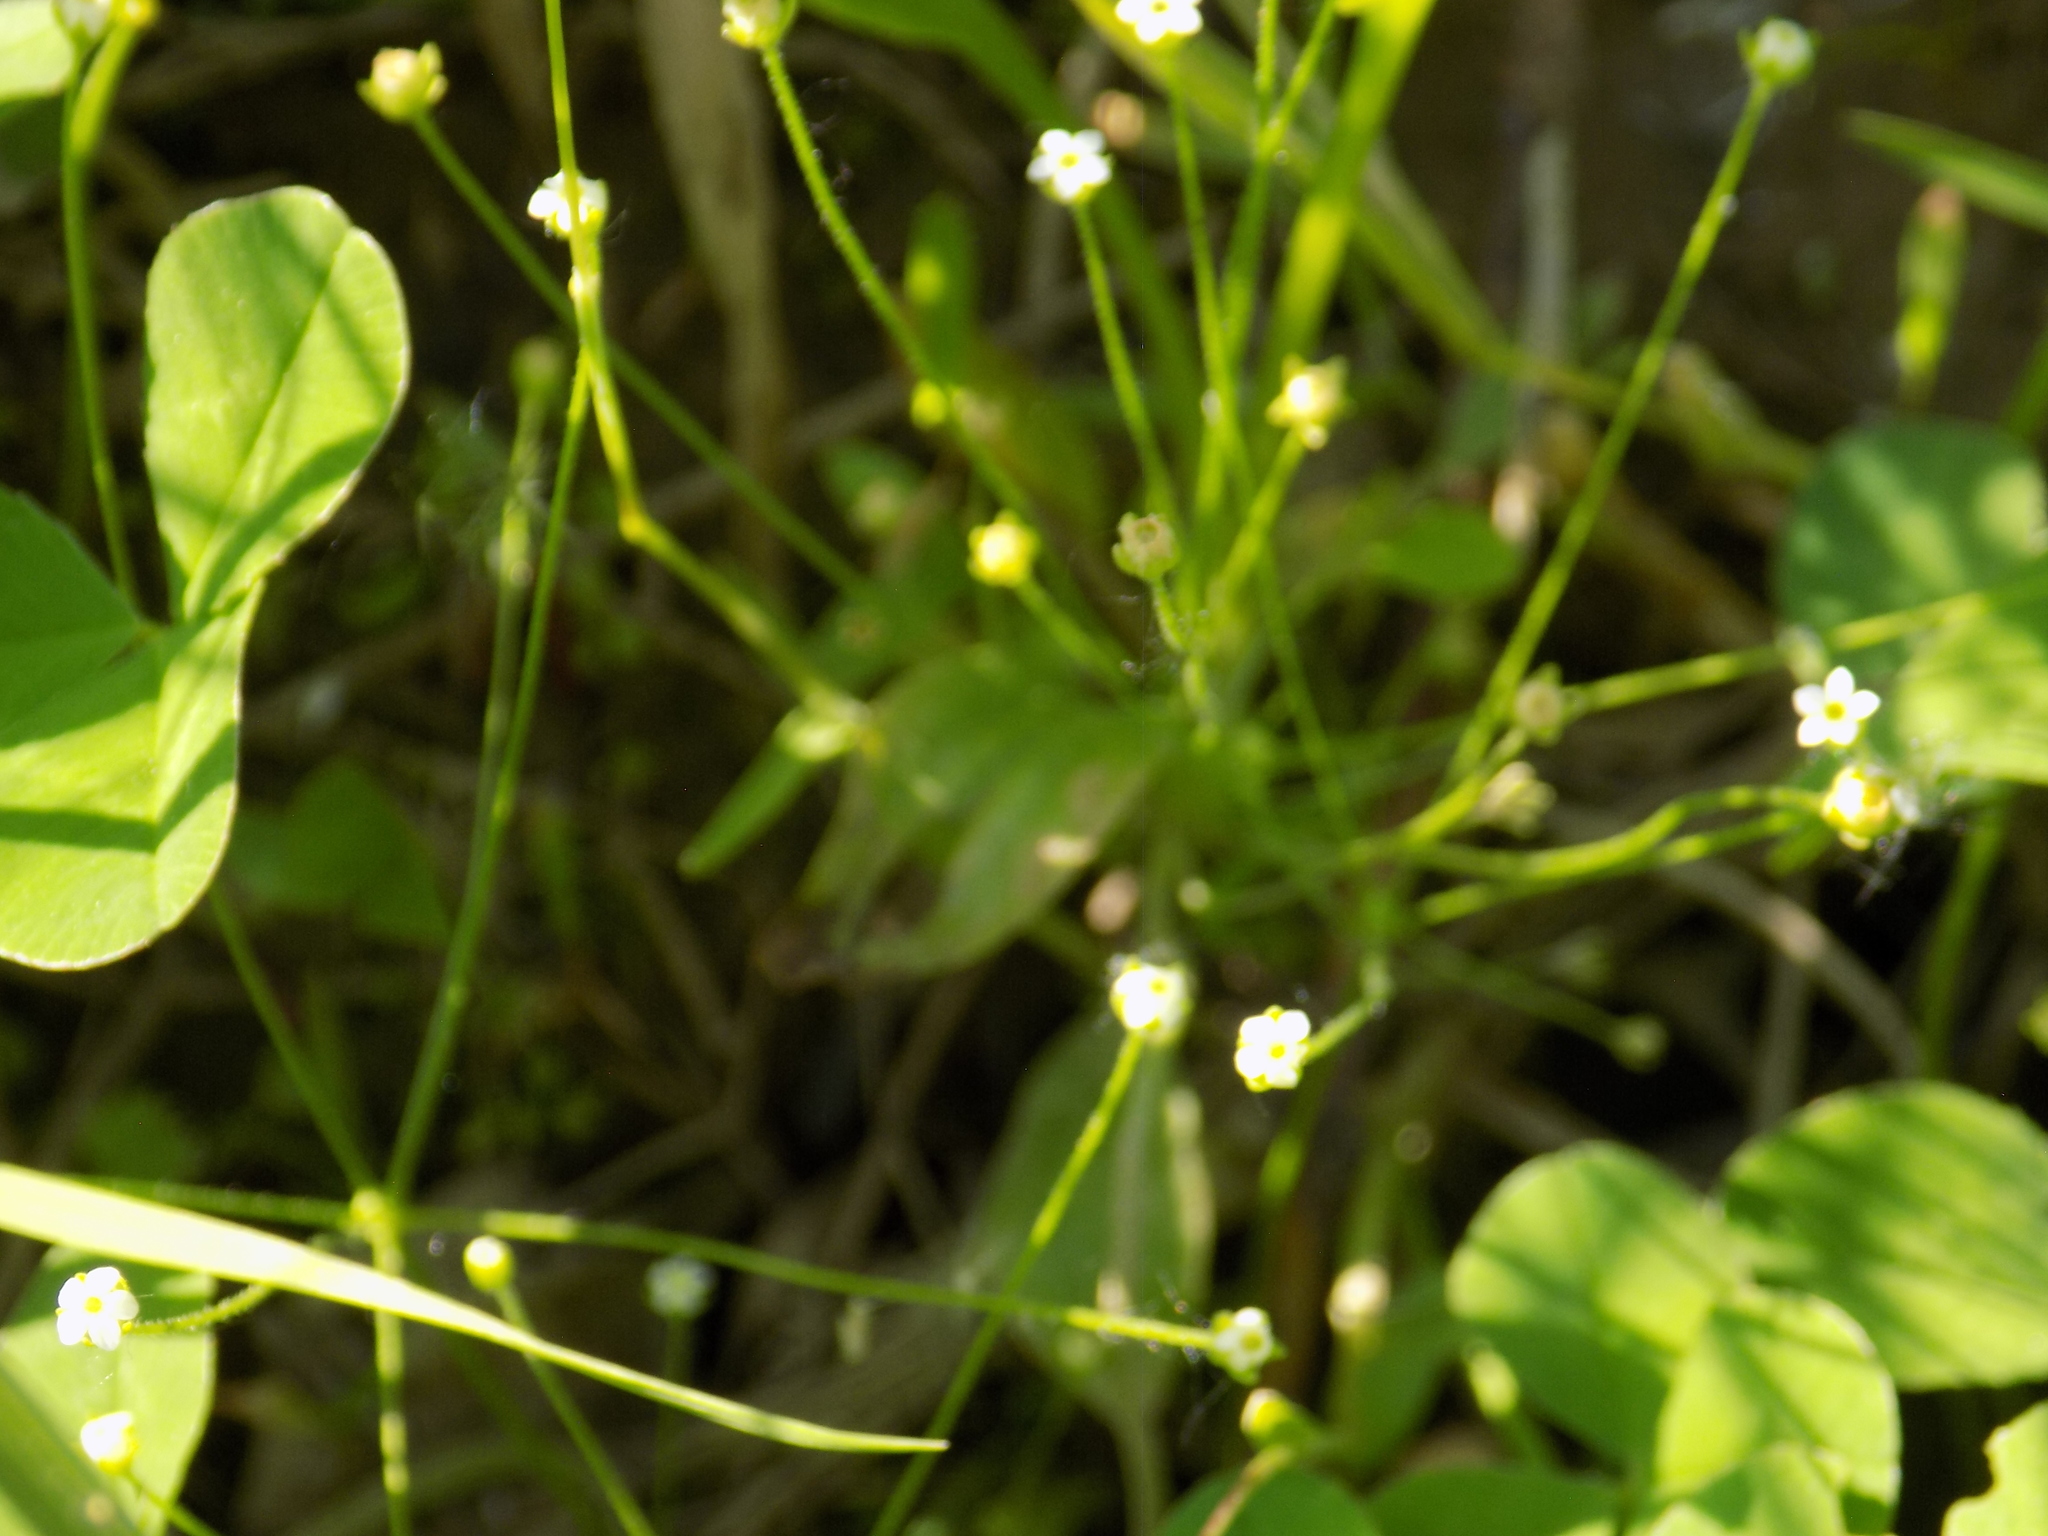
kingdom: Plantae
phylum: Tracheophyta
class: Magnoliopsida
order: Ericales
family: Primulaceae
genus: Androsace
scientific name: Androsace filiformis
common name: Filiform rock jasmine
